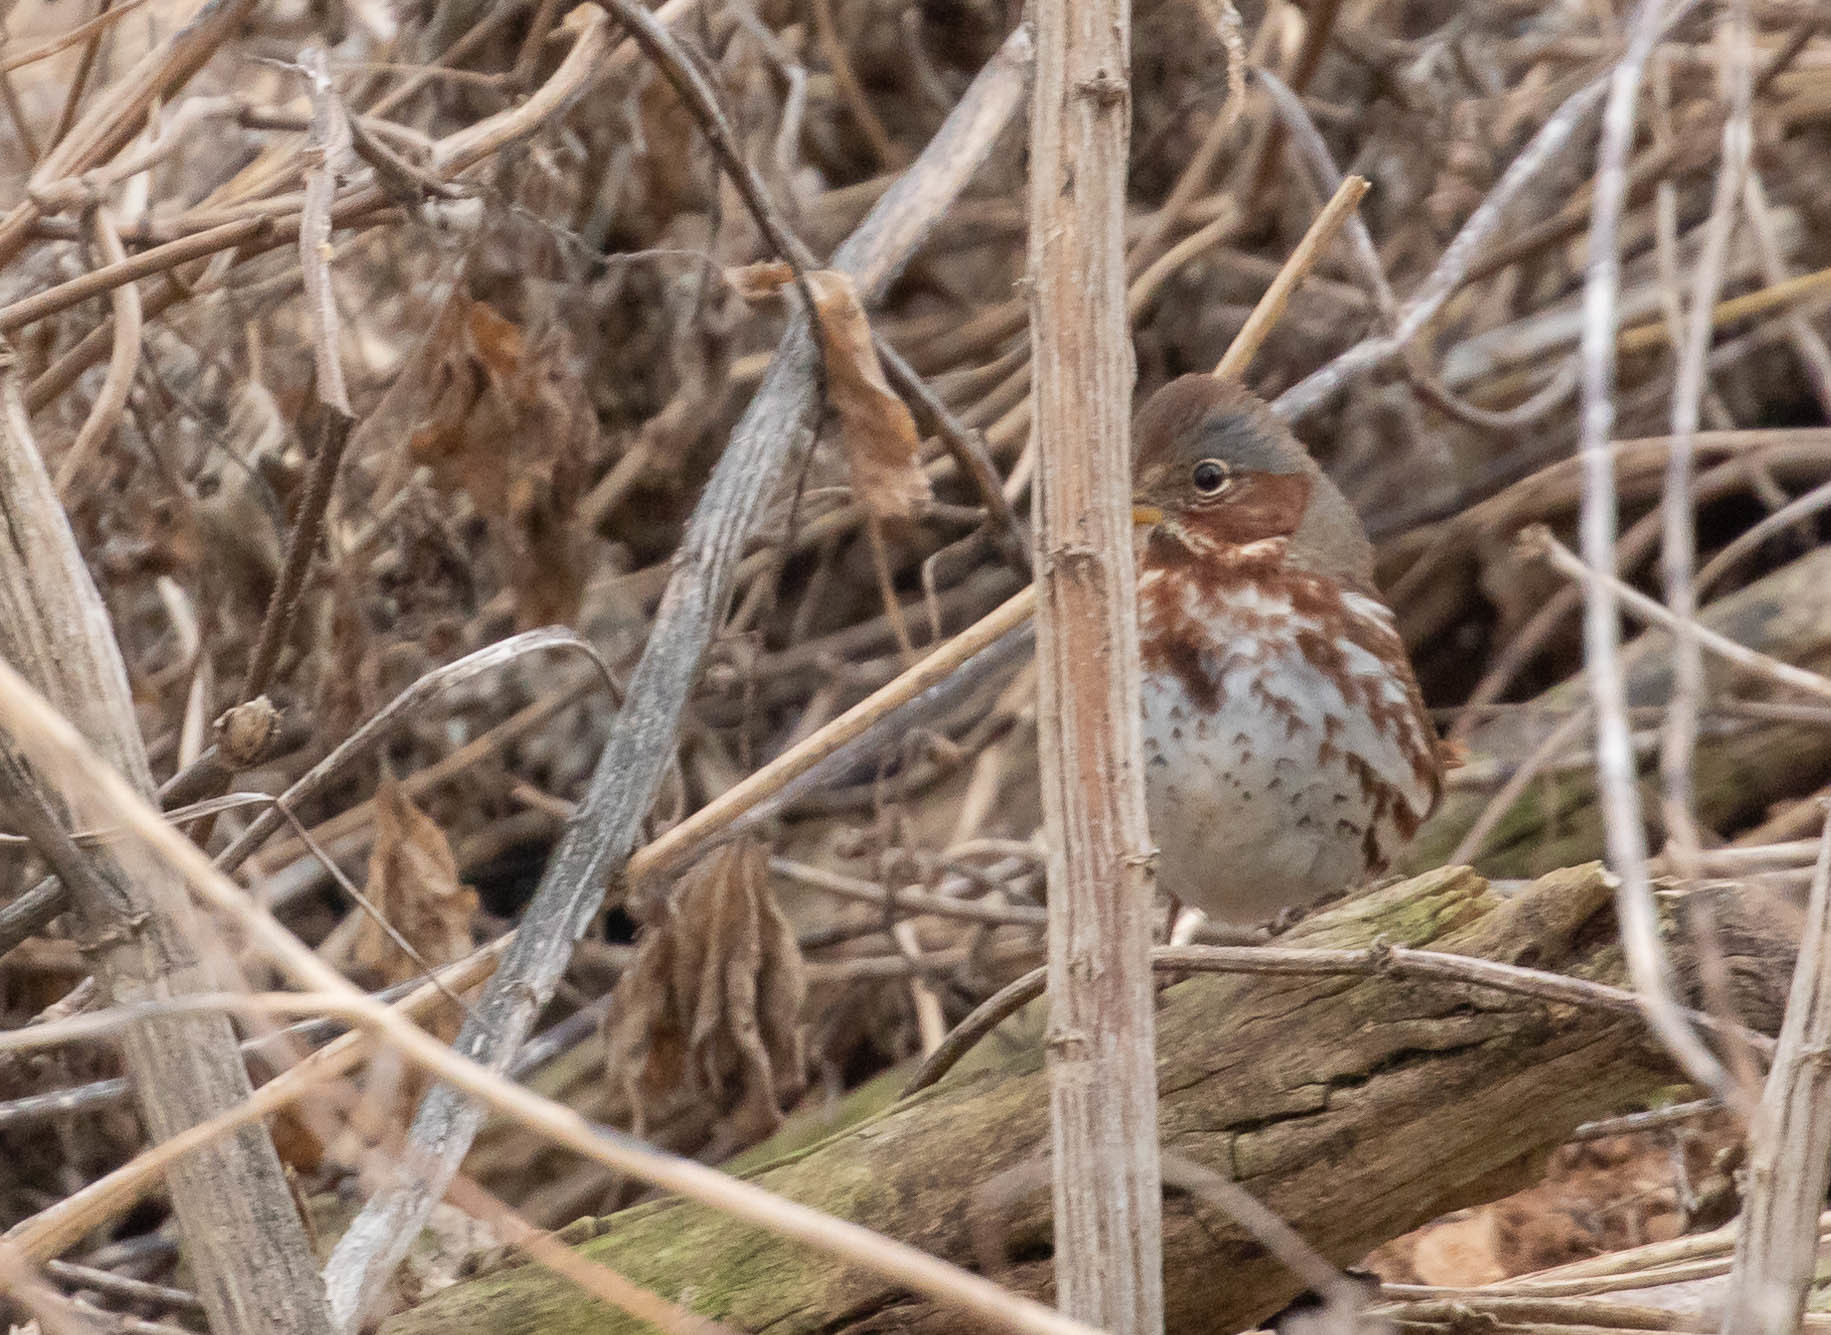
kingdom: Animalia
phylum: Chordata
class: Aves
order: Passeriformes
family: Passerellidae
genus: Passerella
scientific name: Passerella iliaca
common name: Fox sparrow
